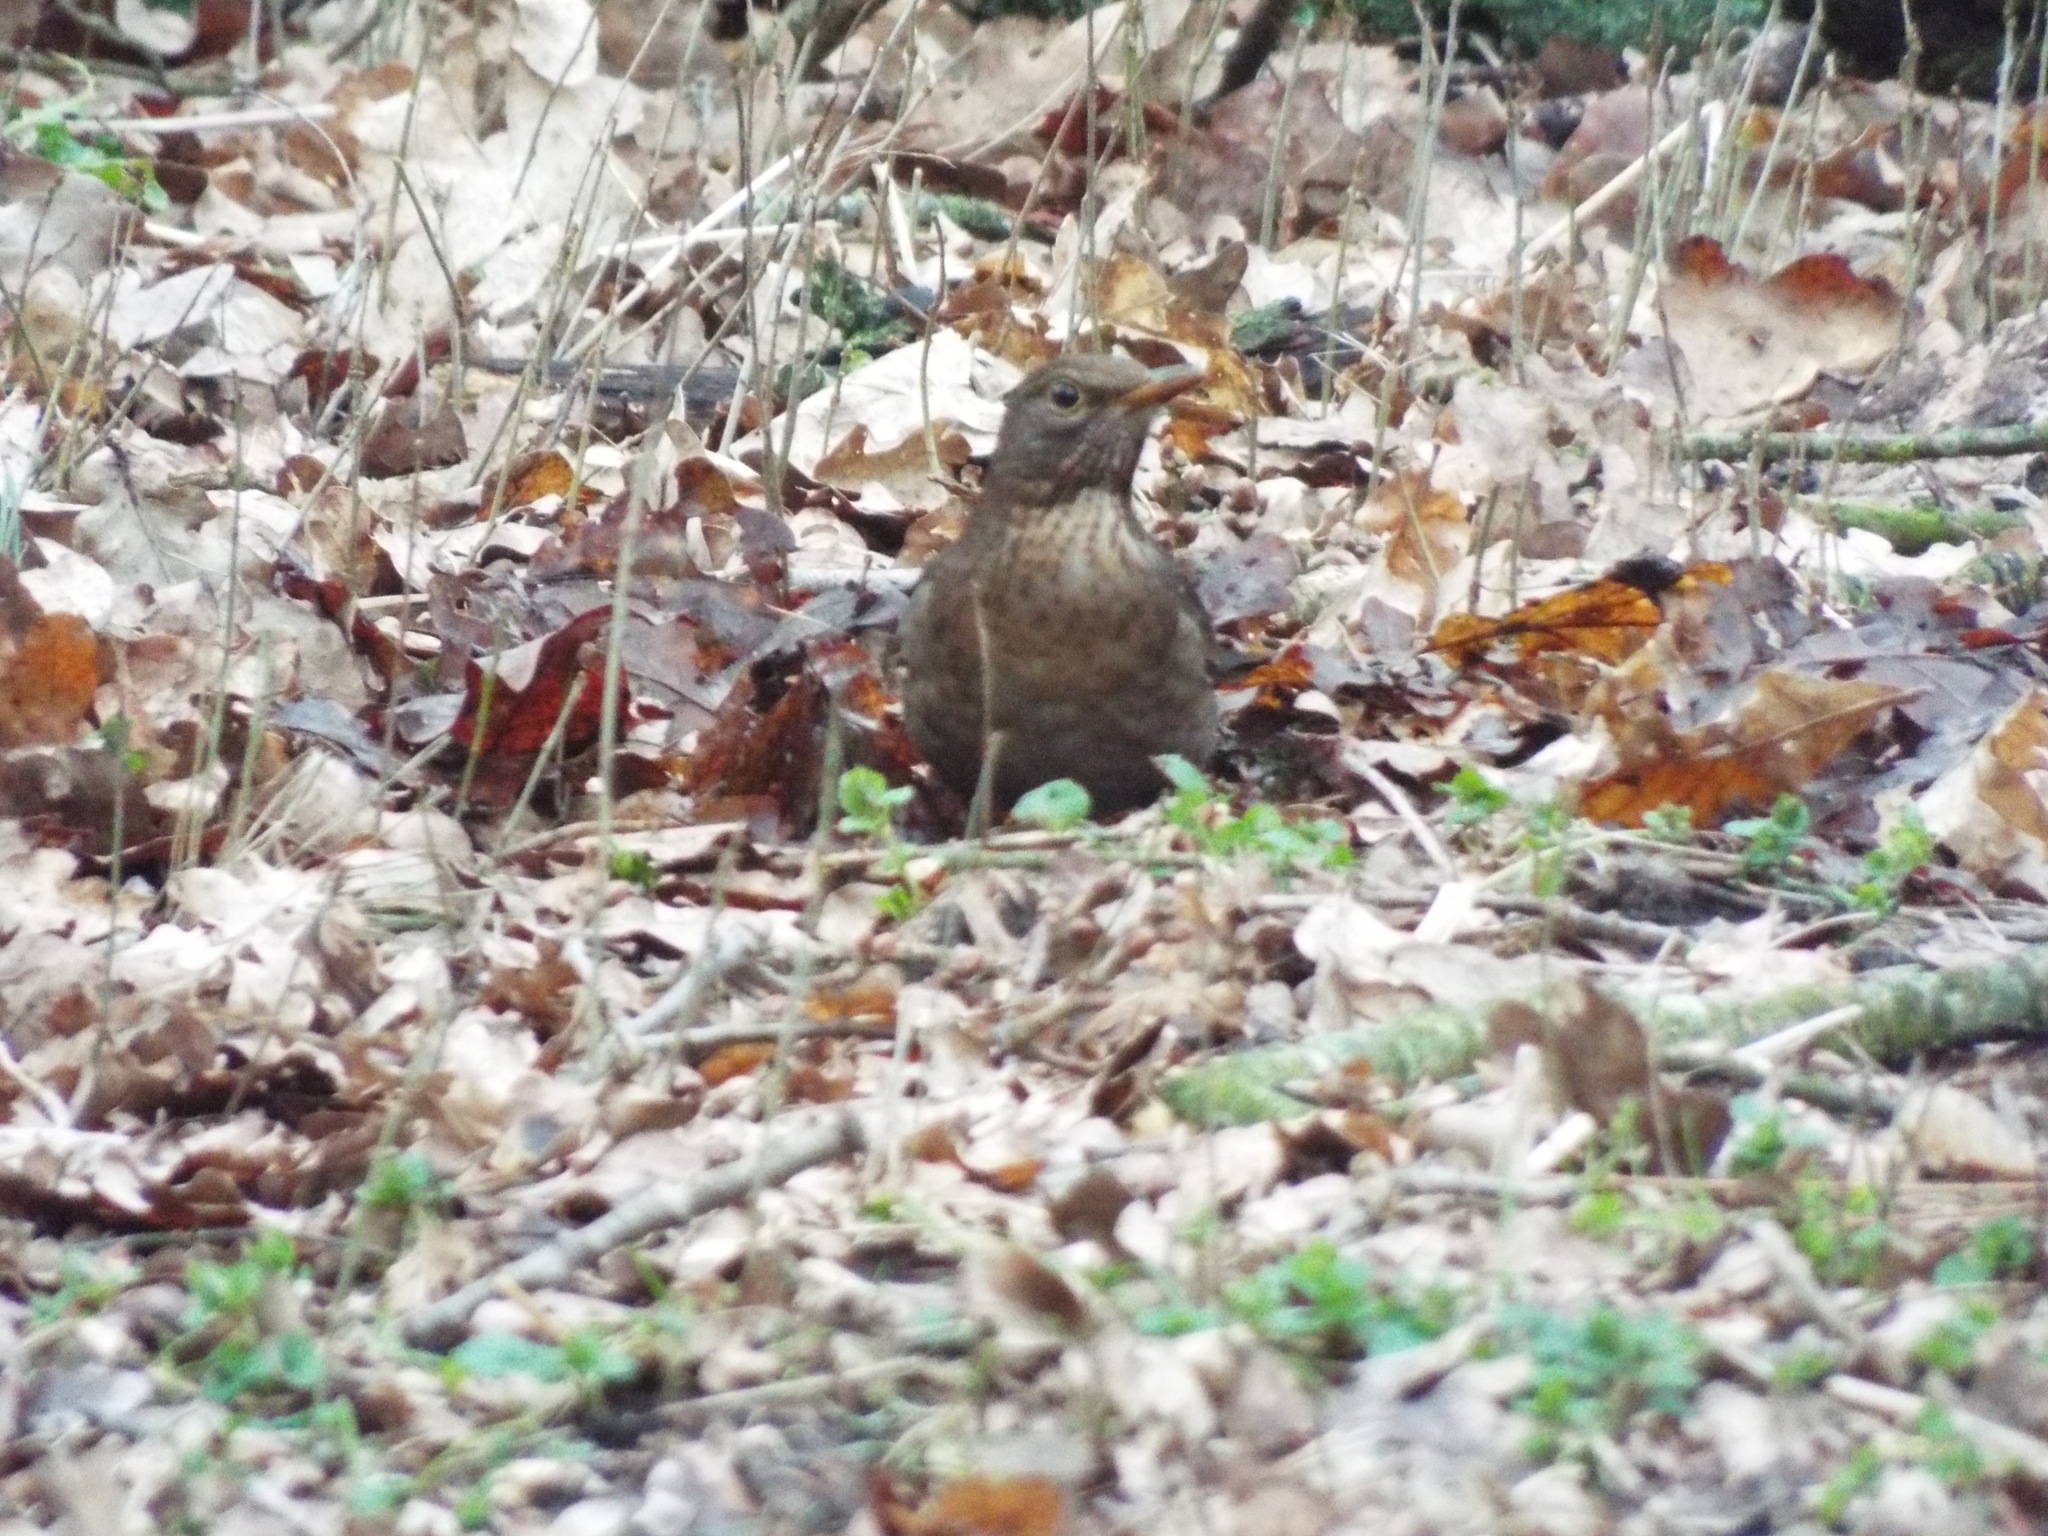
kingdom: Animalia
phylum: Chordata
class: Aves
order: Passeriformes
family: Turdidae
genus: Turdus
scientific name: Turdus merula
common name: Common blackbird
